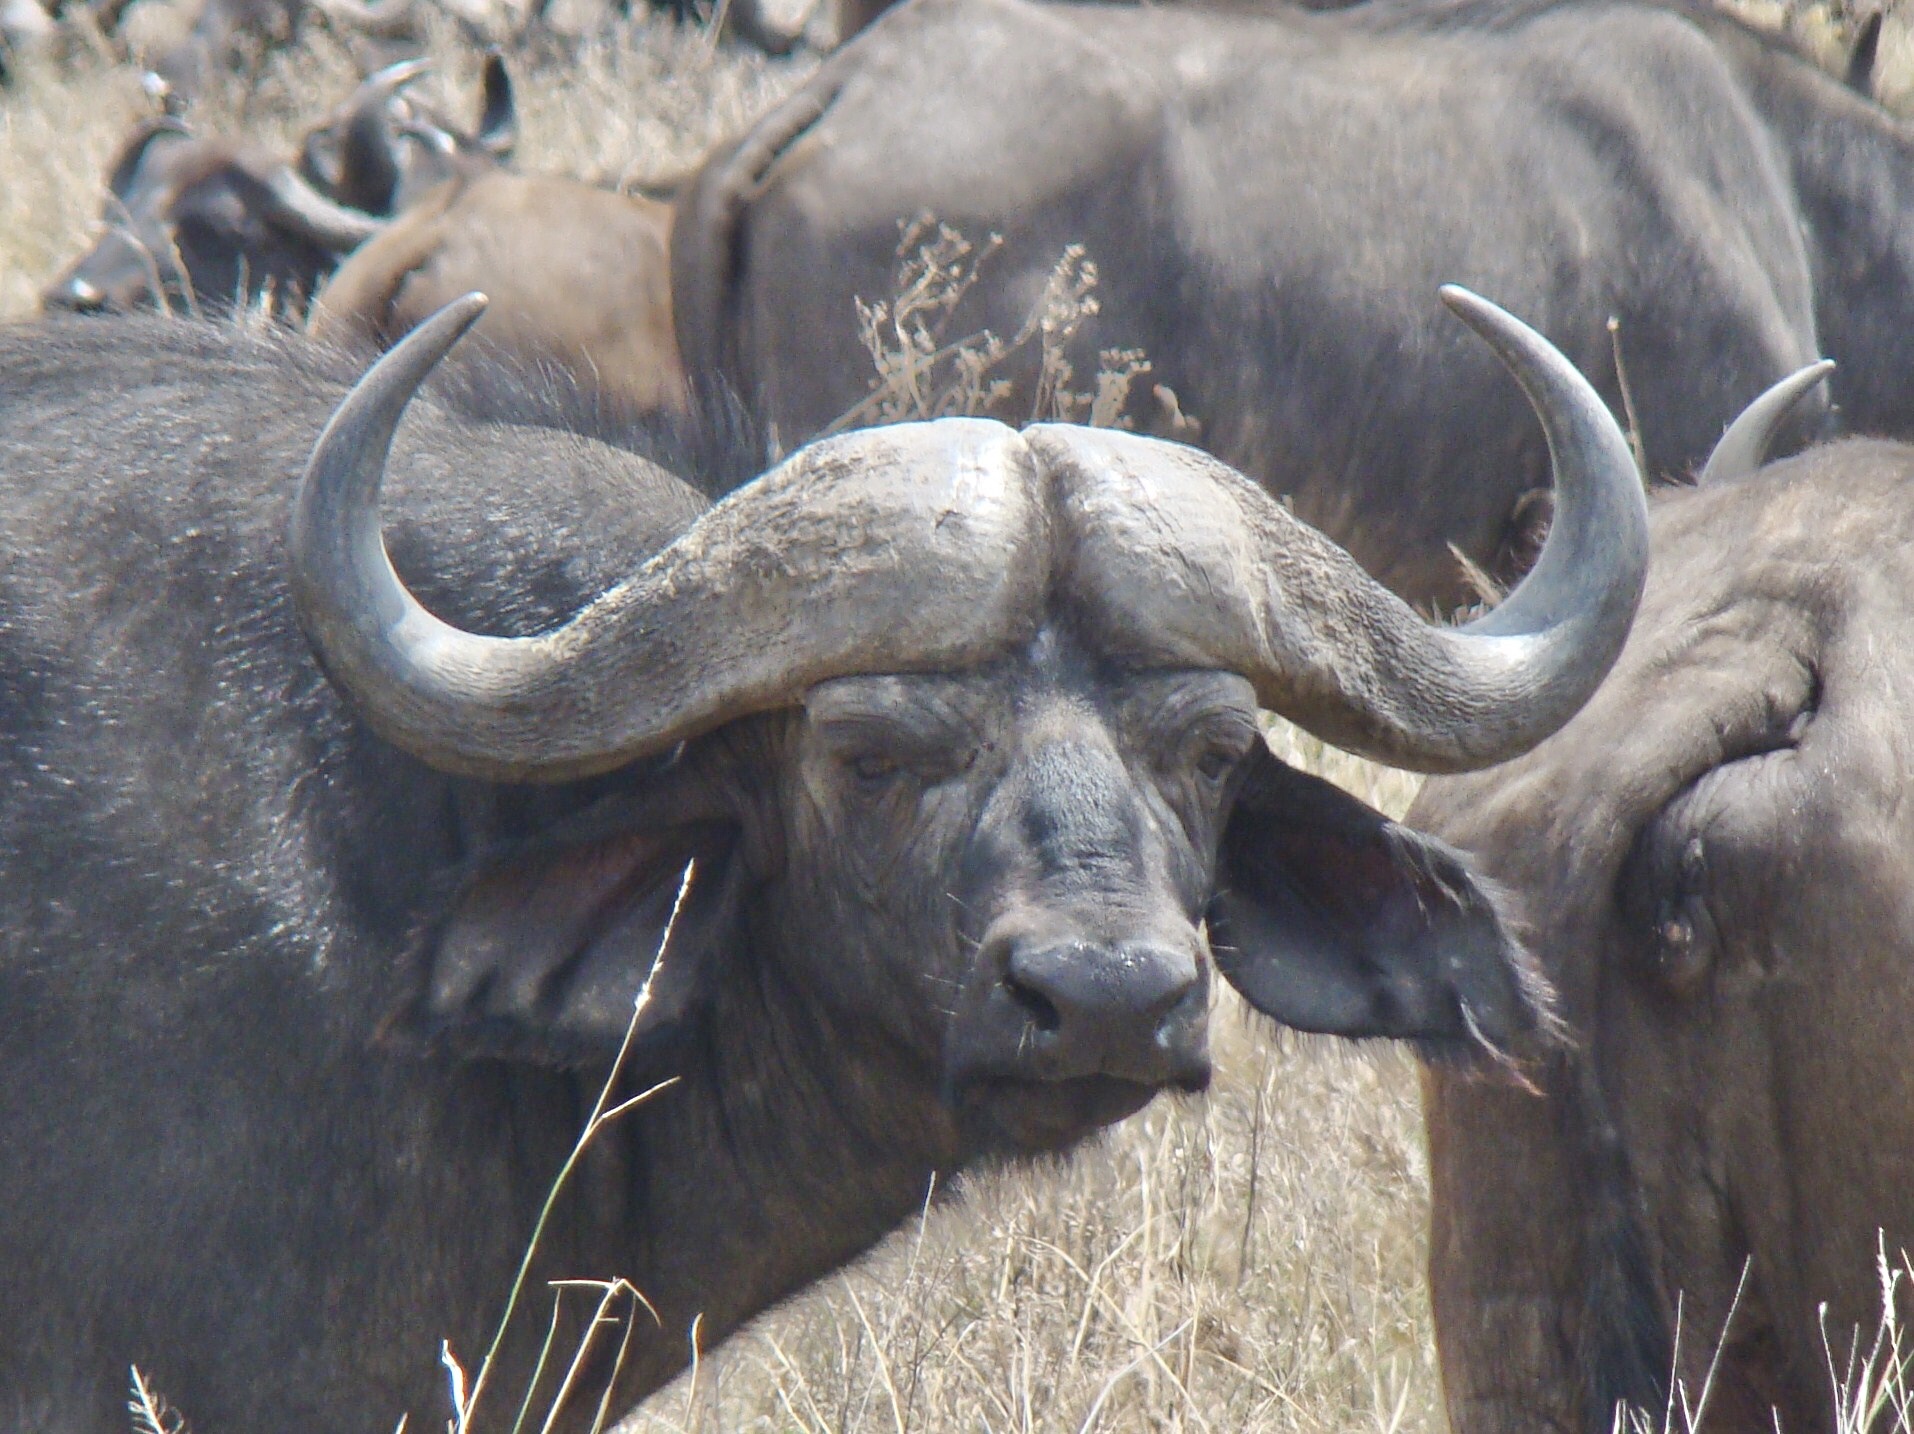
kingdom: Animalia
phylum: Chordata
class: Mammalia
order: Artiodactyla
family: Bovidae
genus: Syncerus
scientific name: Syncerus caffer
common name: African buffalo
